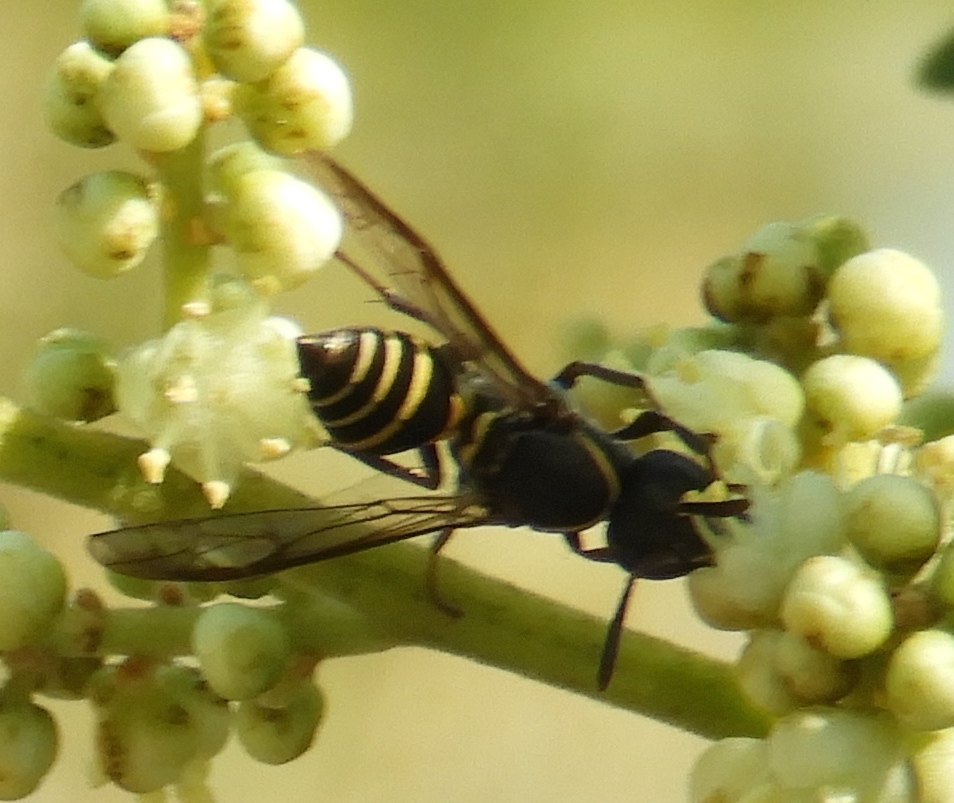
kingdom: Animalia
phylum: Arthropoda
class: Insecta
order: Hymenoptera
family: Eumenidae
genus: Polybia
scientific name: Polybia occidentalis
